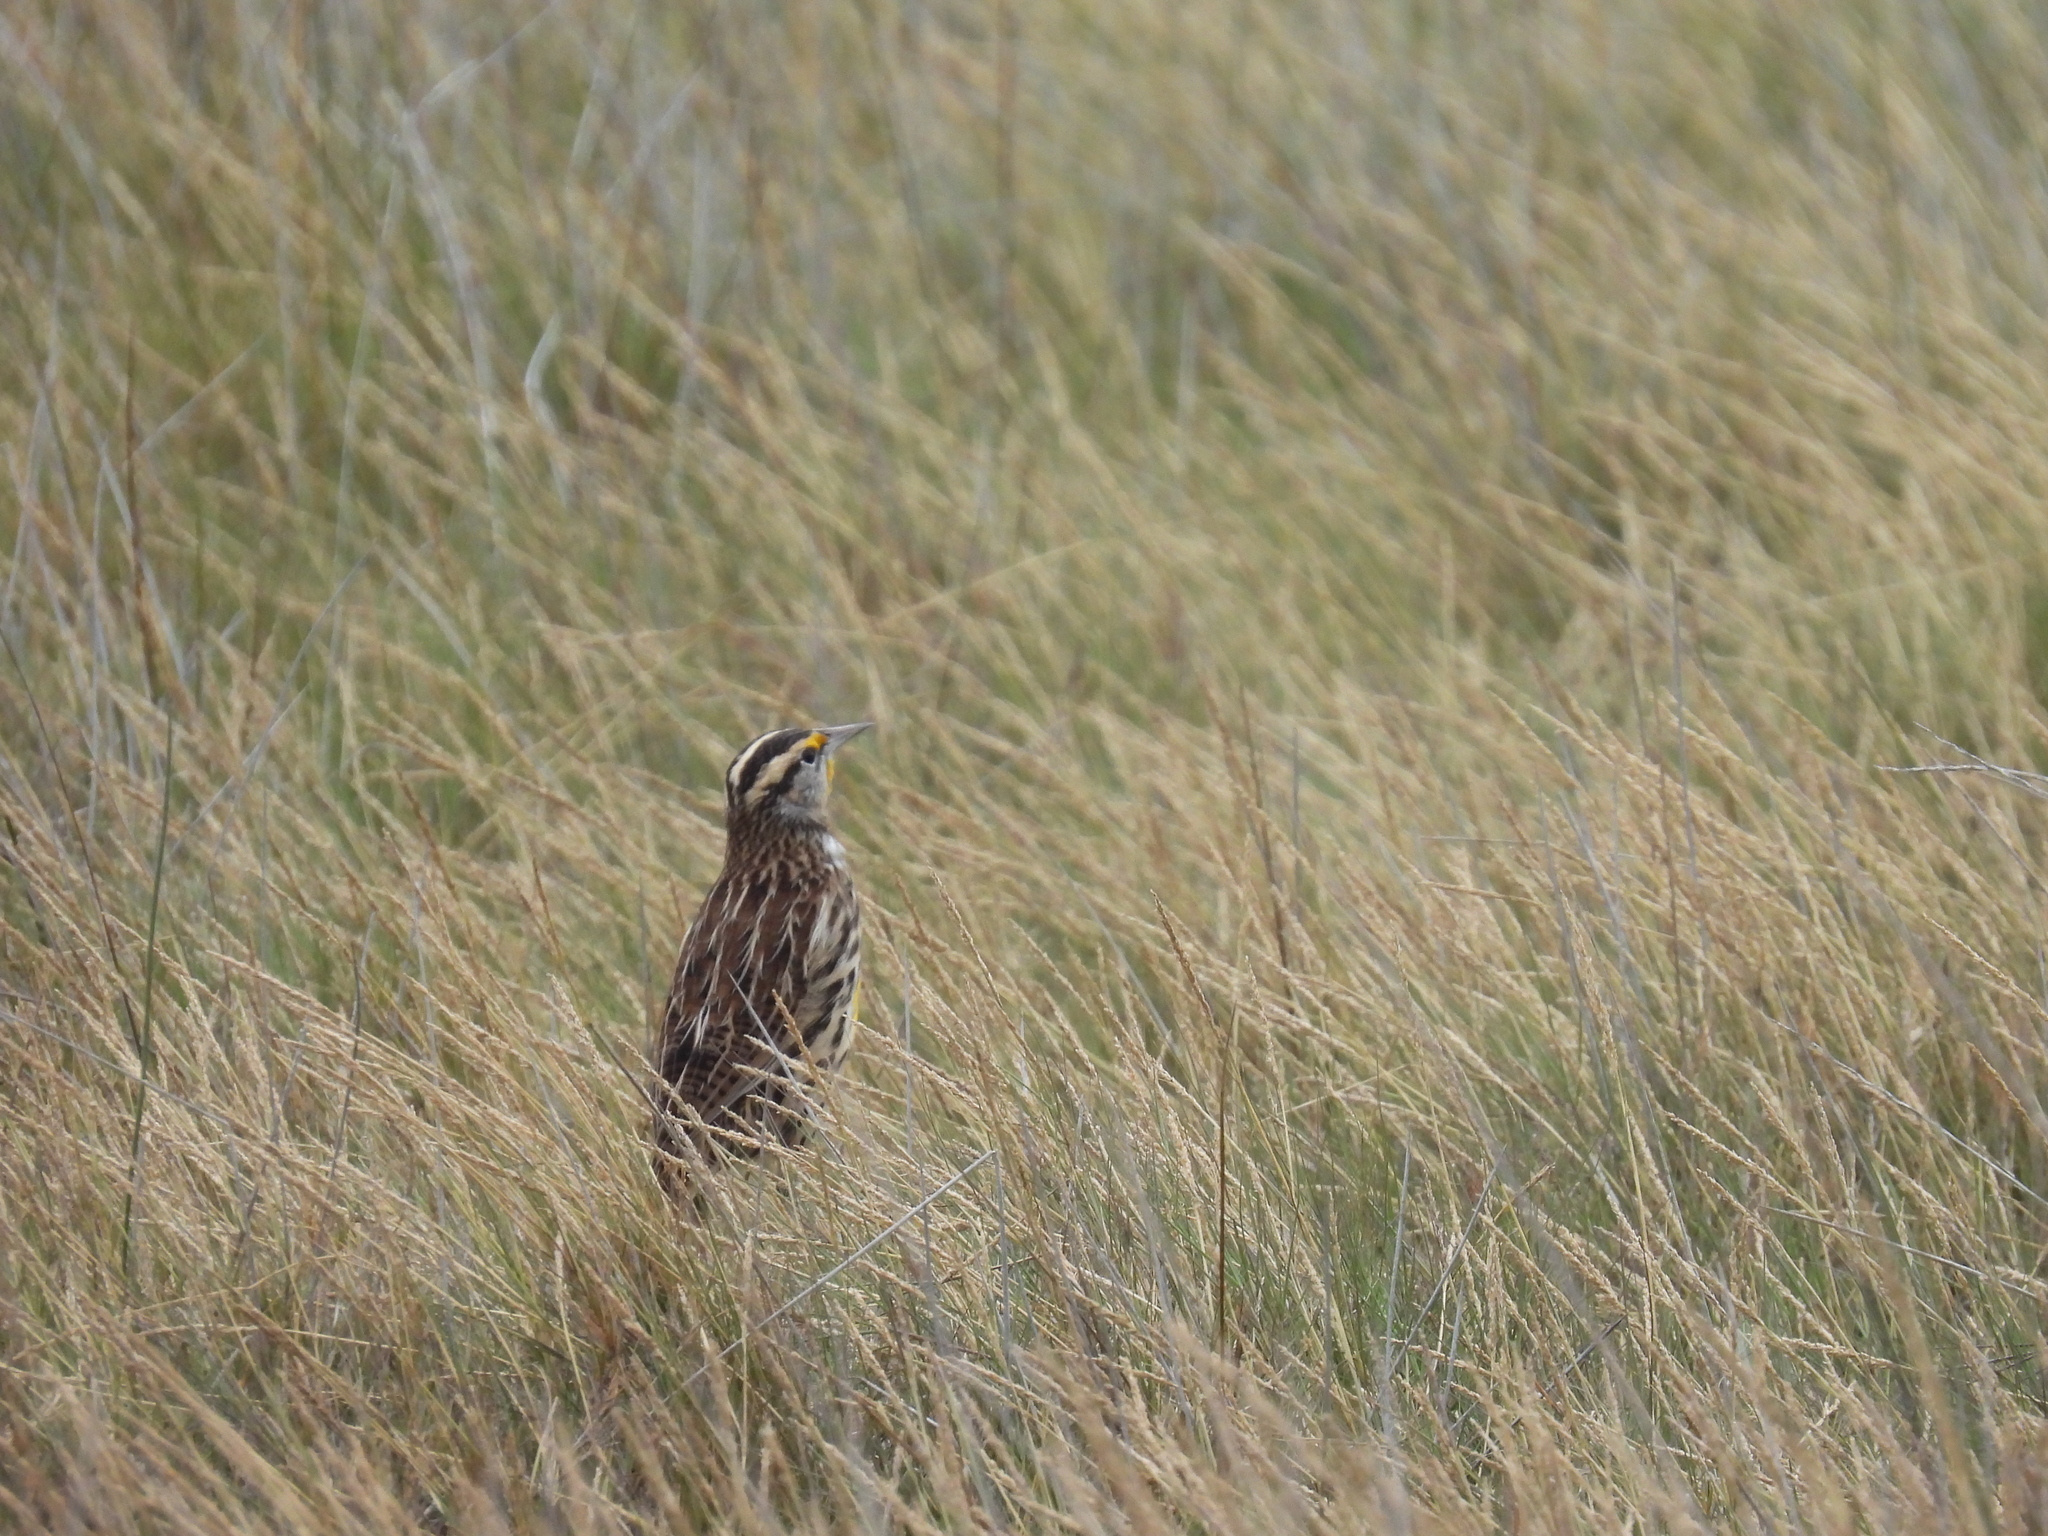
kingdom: Animalia
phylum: Chordata
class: Aves
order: Passeriformes
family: Icteridae
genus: Sturnella
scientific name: Sturnella magna
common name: Eastern meadowlark
